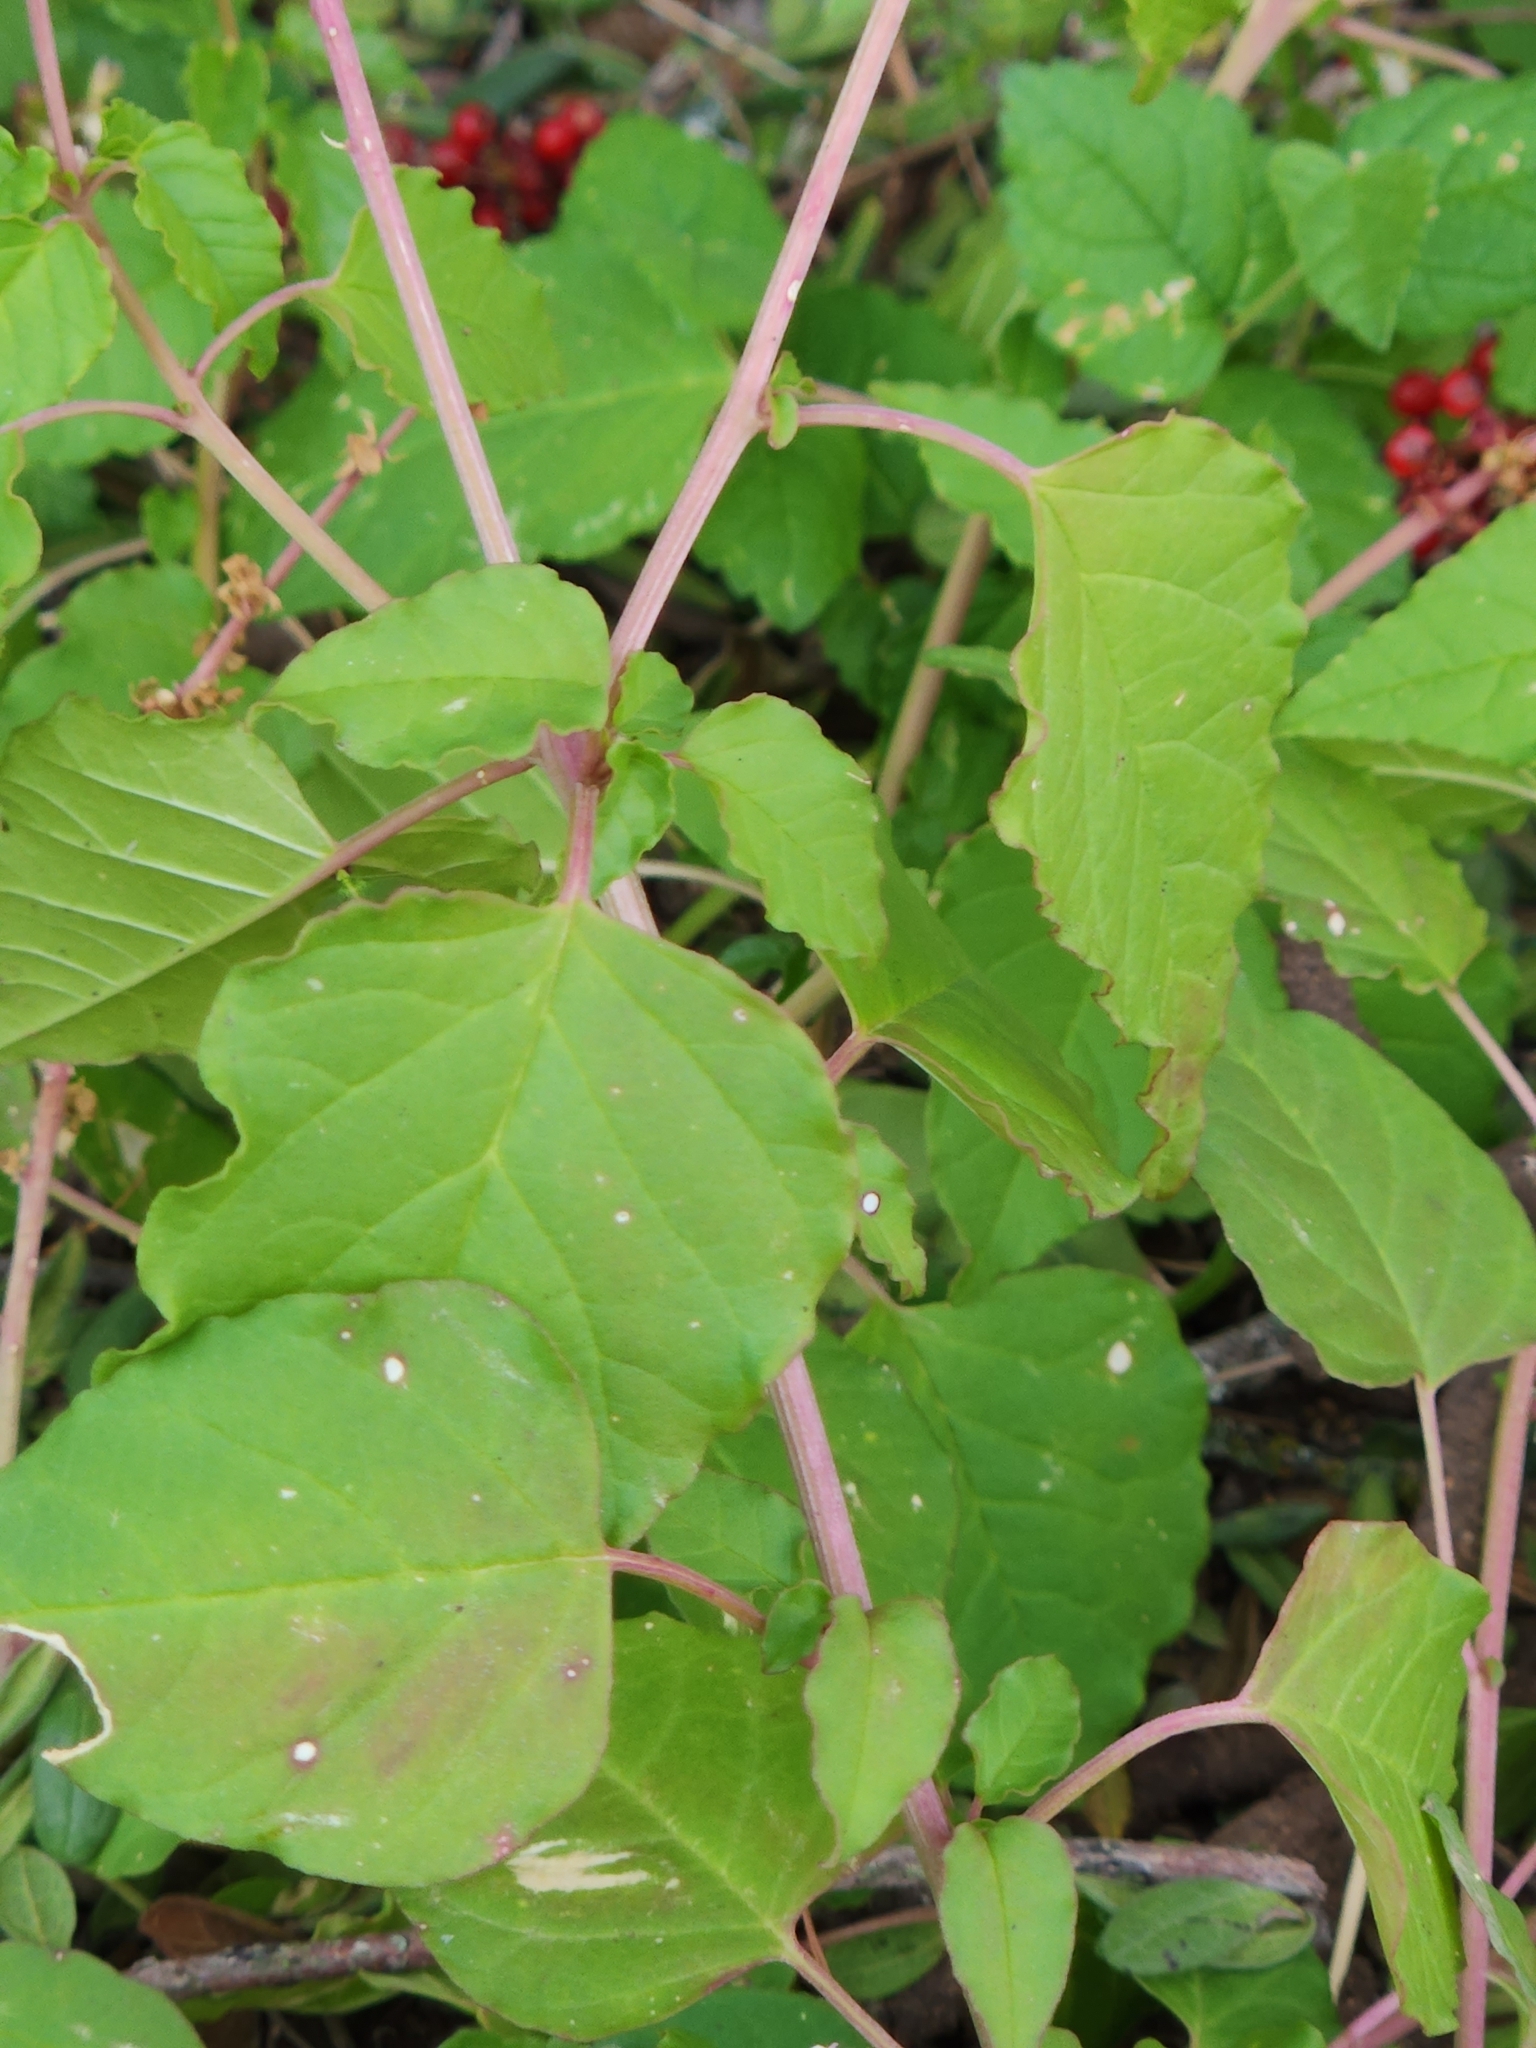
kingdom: Plantae
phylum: Tracheophyta
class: Magnoliopsida
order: Caryophyllales
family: Phytolaccaceae
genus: Rivina
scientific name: Rivina humilis
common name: Rougeplant
